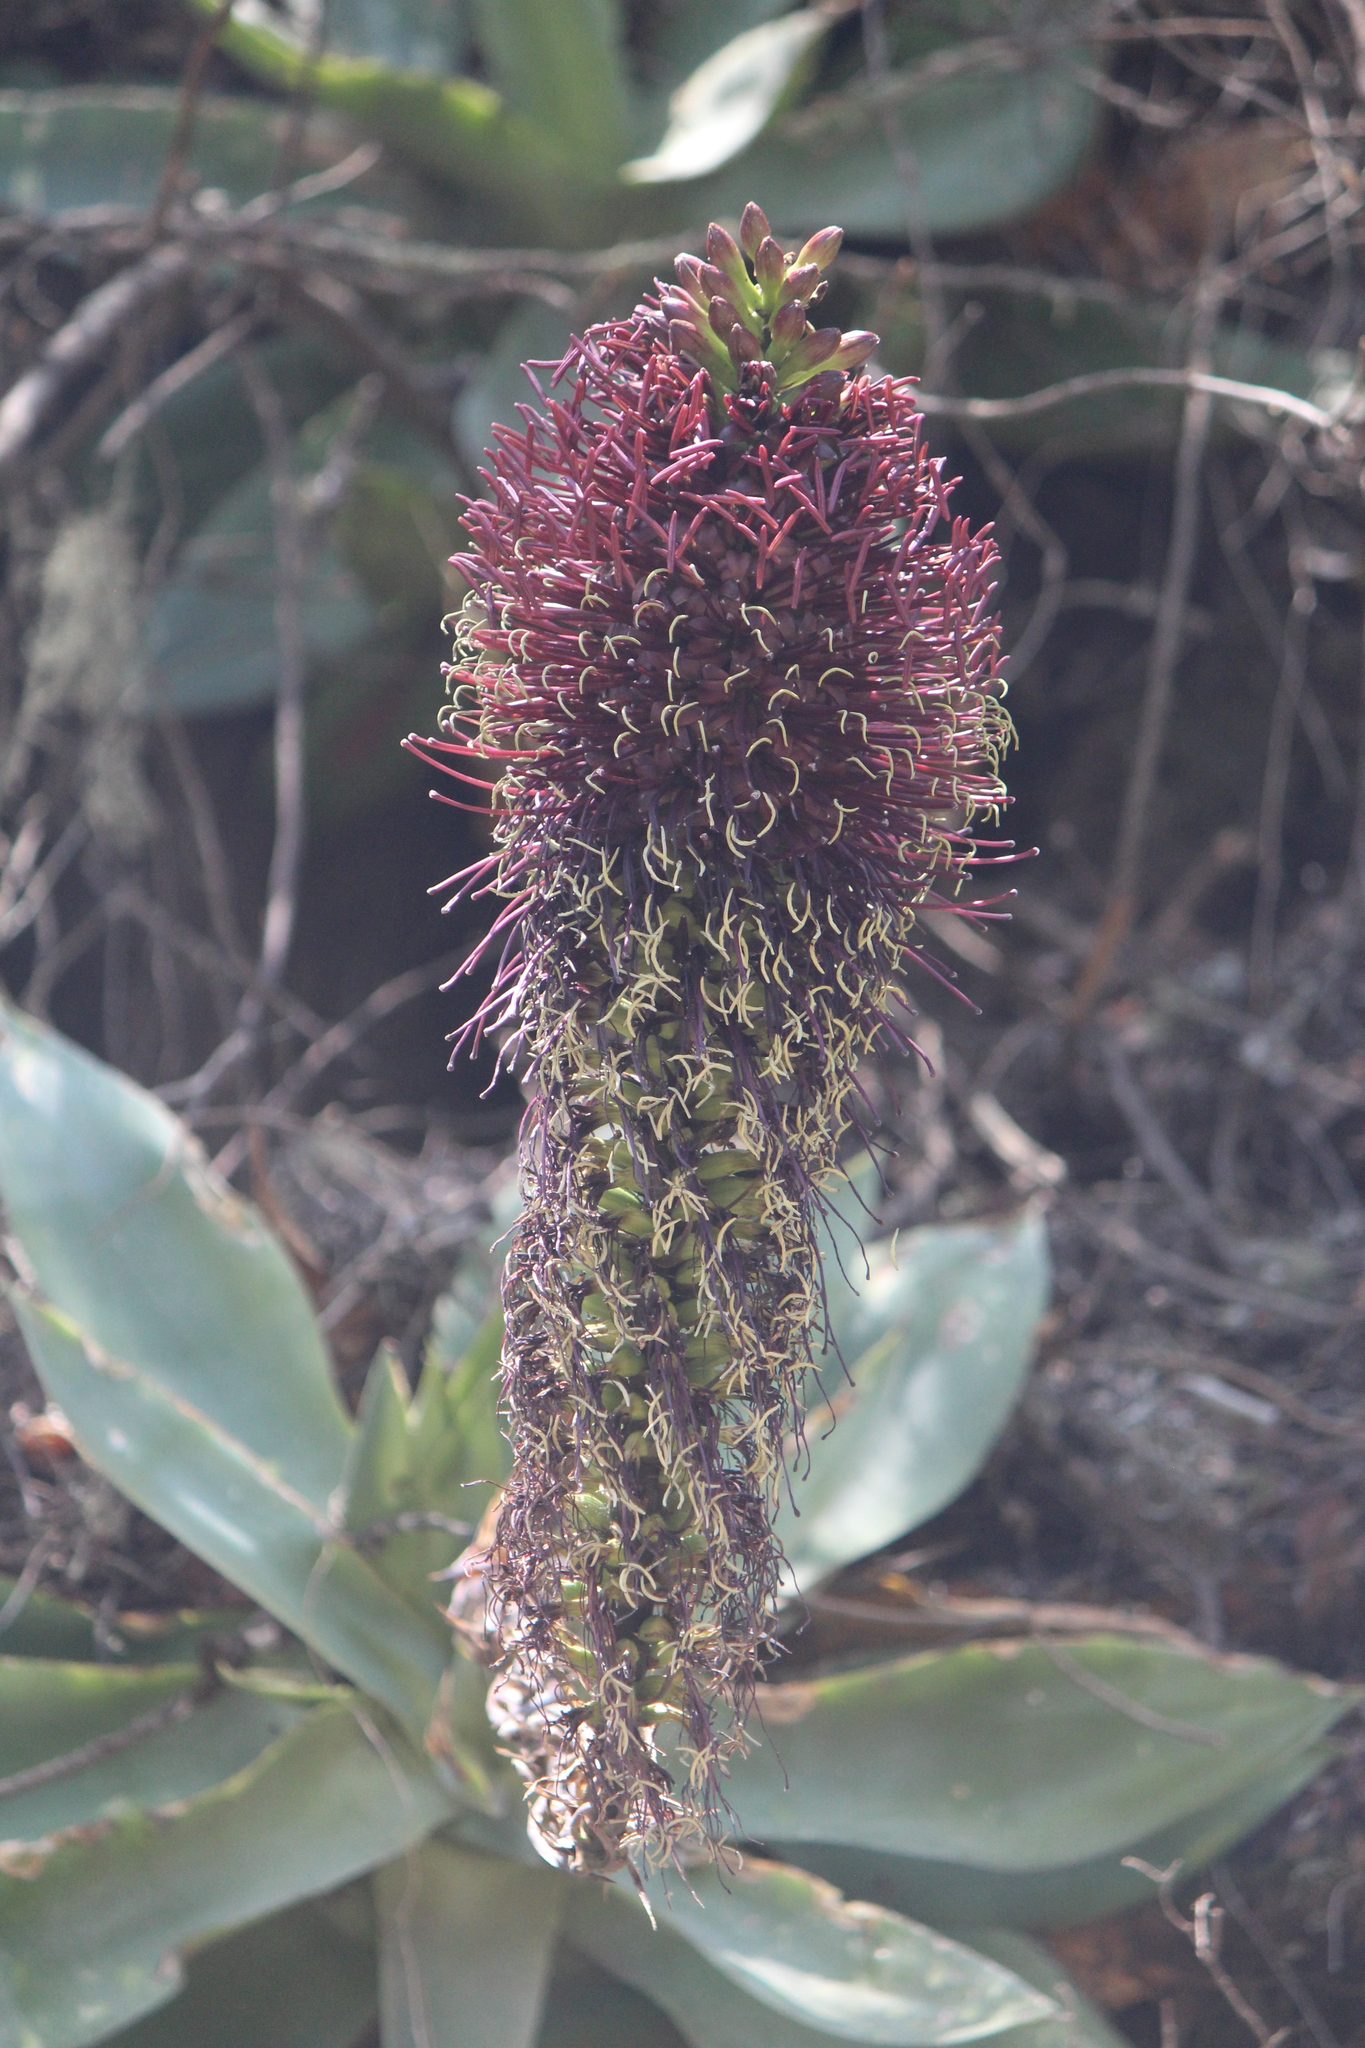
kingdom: Plantae
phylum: Tracheophyta
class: Liliopsida
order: Asparagales
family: Asparagaceae
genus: Agave
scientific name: Agave mitis
